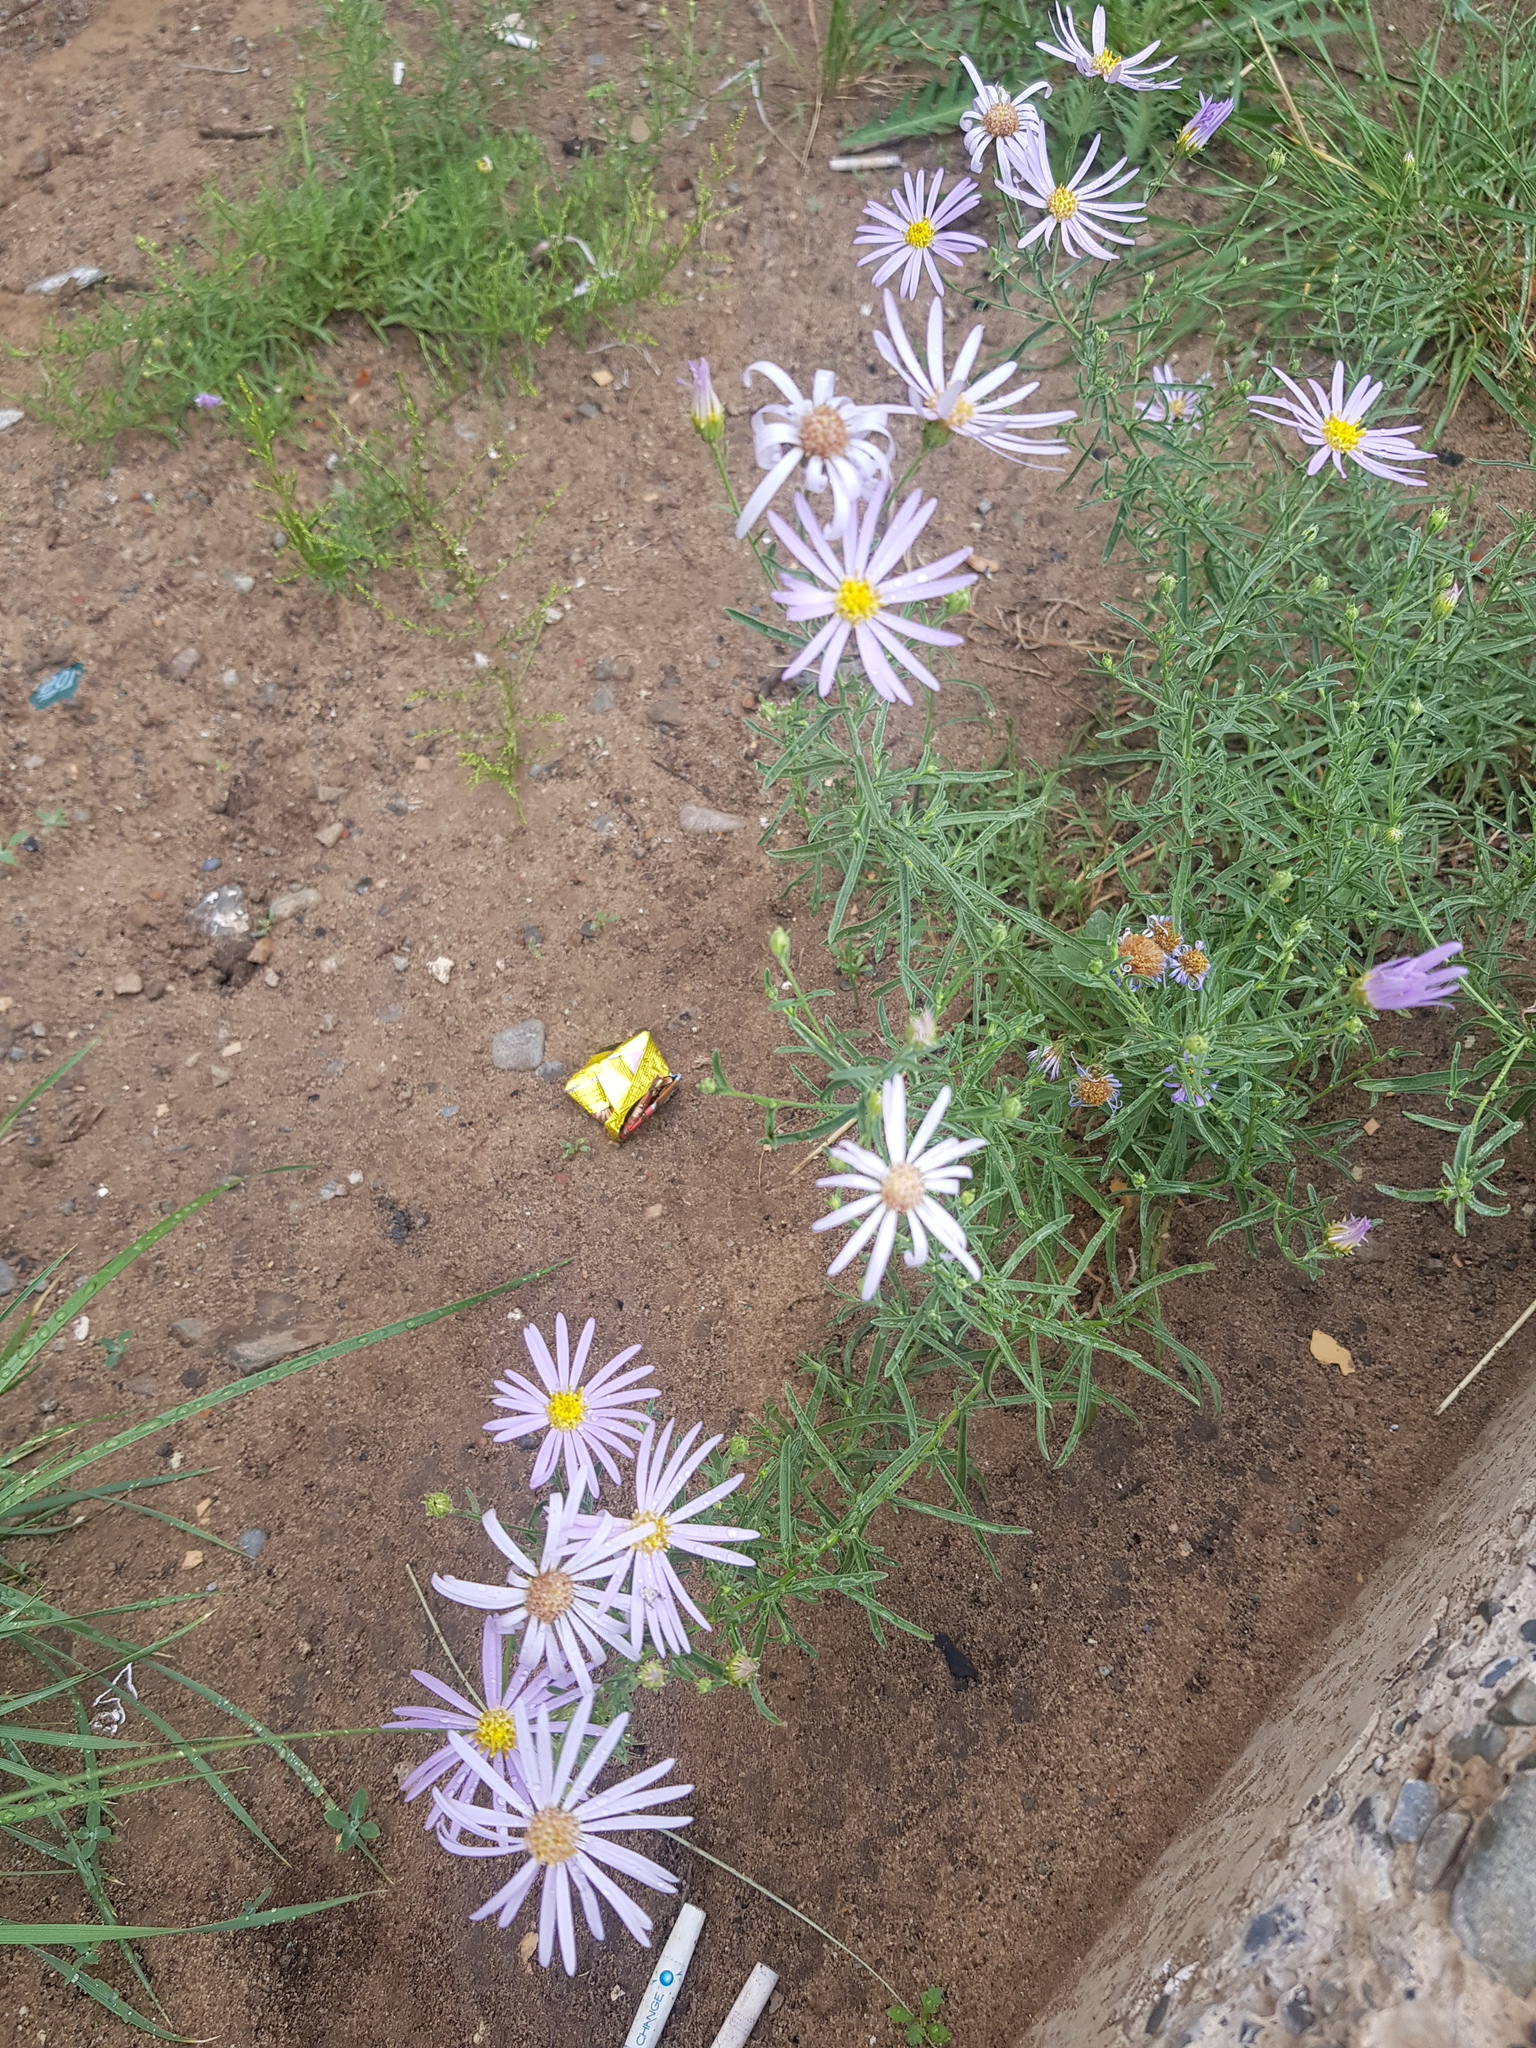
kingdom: Plantae
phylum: Tracheophyta
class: Magnoliopsida
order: Asterales
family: Asteraceae
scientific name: Asteraceae
